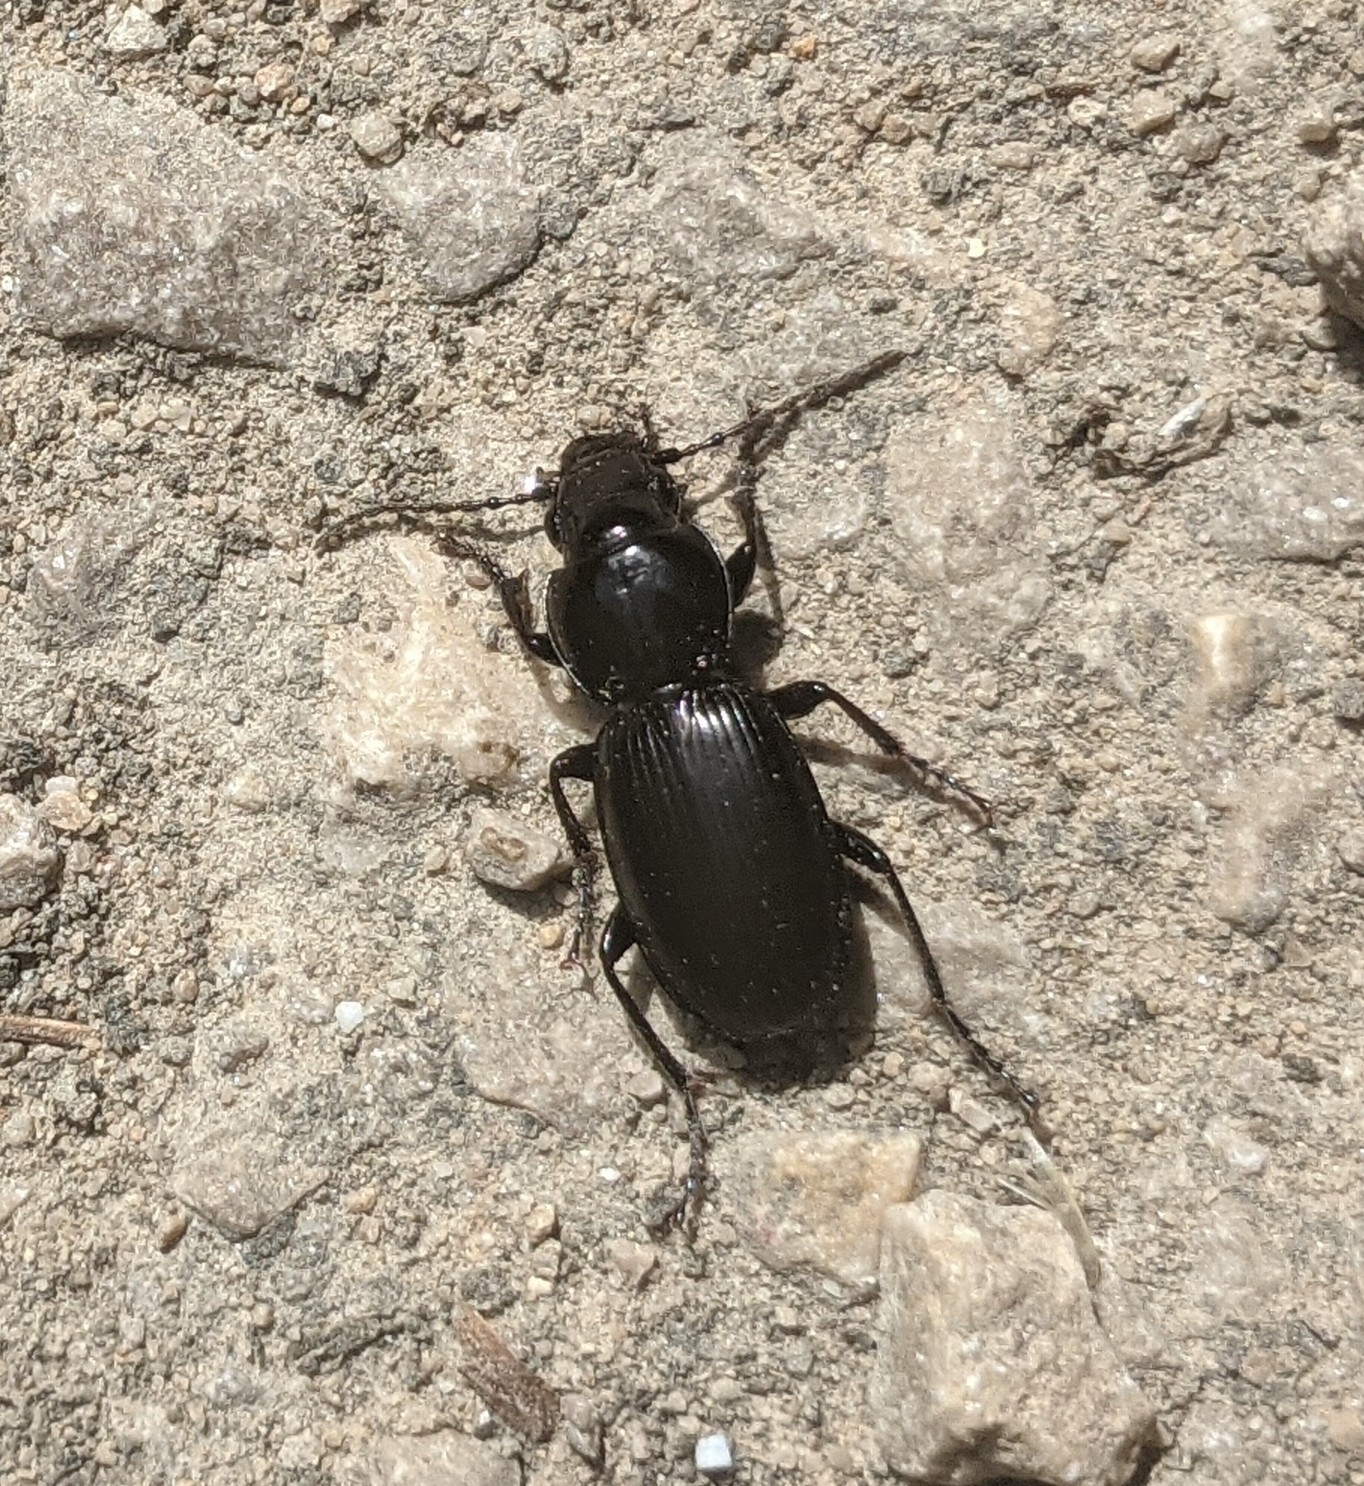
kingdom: Animalia
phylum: Arthropoda
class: Insecta
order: Coleoptera
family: Carabidae
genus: Pterostichus
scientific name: Pterostichus madidus
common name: Black clock
